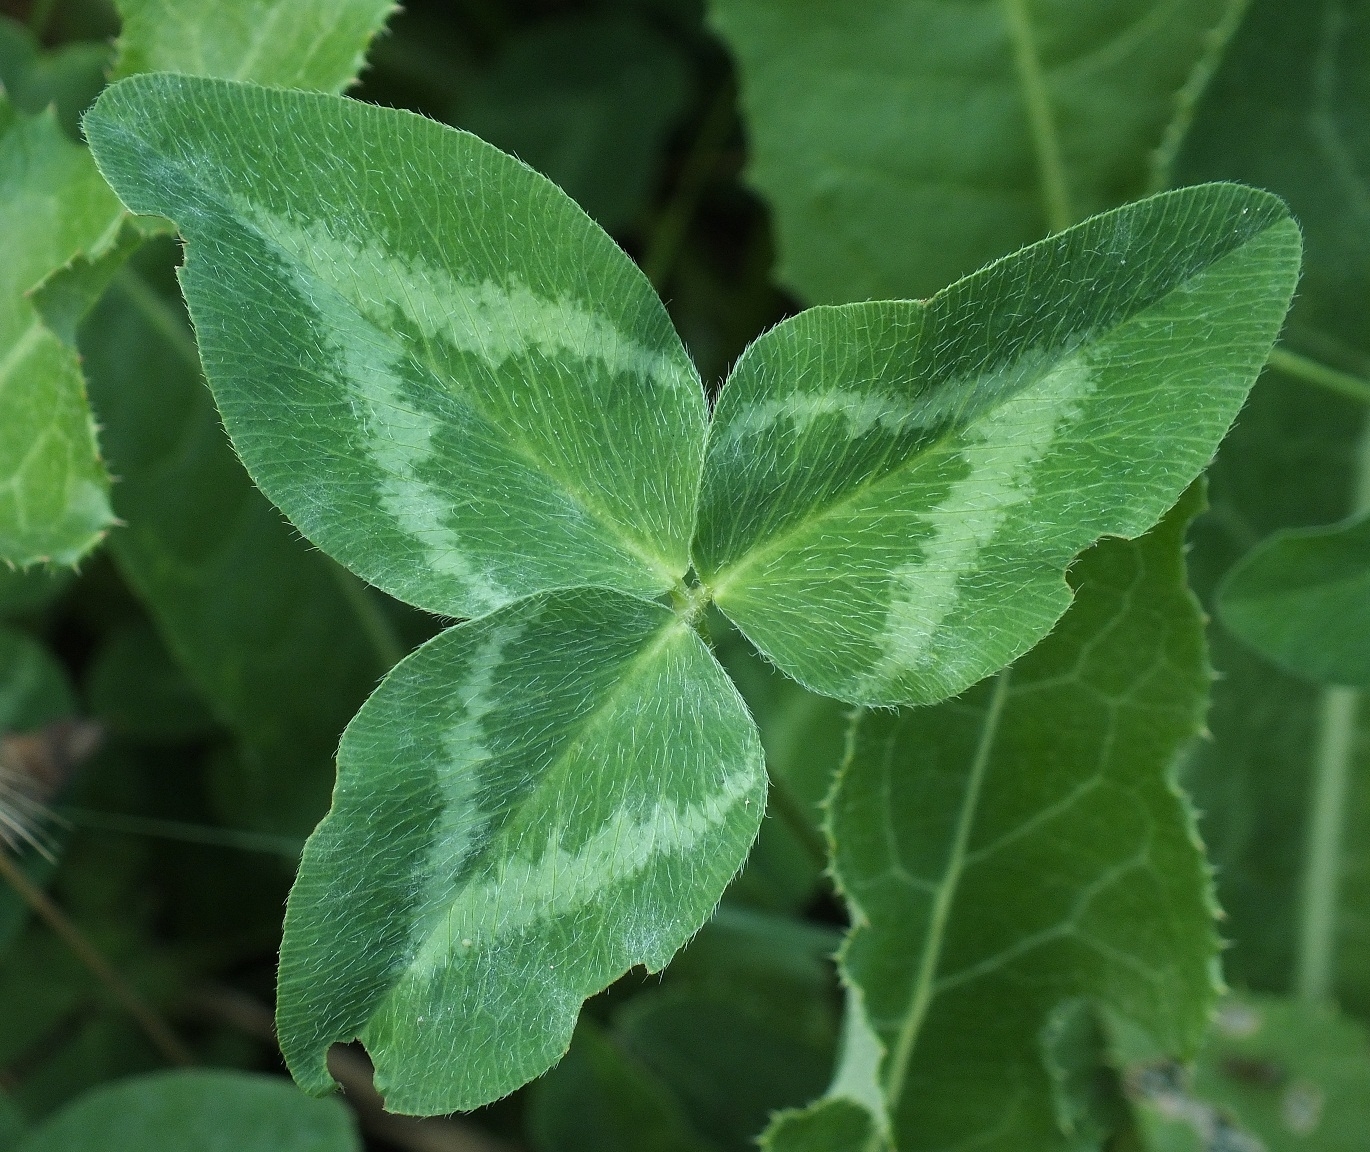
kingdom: Plantae
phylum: Tracheophyta
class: Magnoliopsida
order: Fabales
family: Fabaceae
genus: Trifolium
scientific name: Trifolium pratense
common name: Red clover
